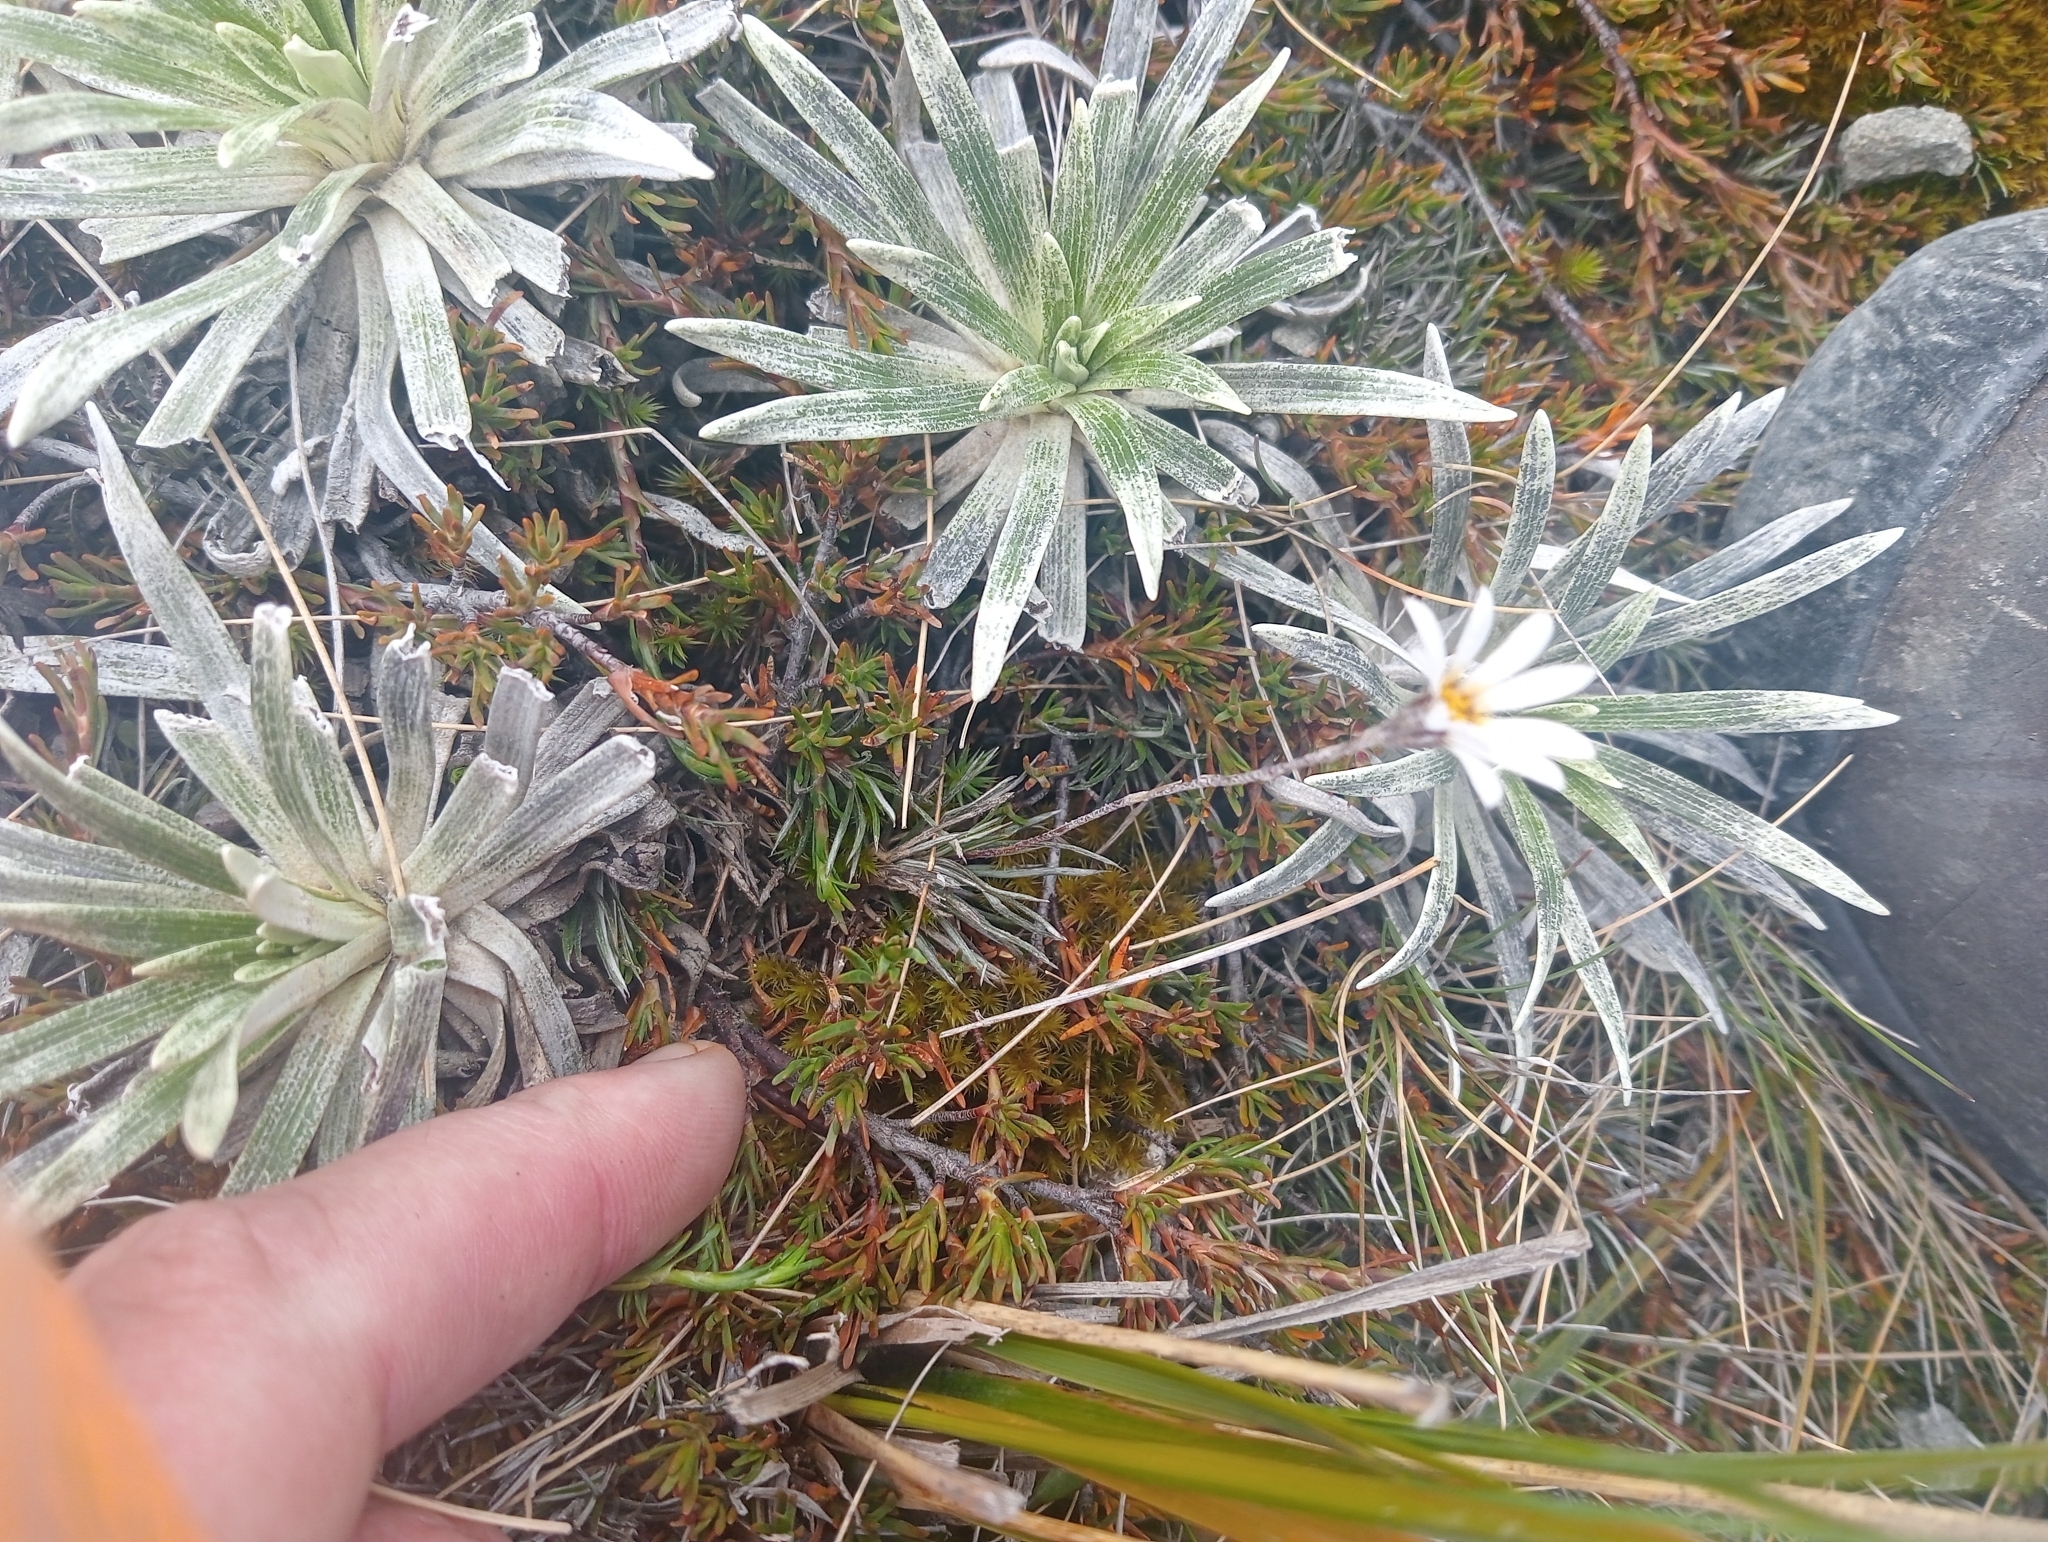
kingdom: Plantae
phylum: Tracheophyta
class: Magnoliopsida
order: Asterales
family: Asteraceae
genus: Celmisia
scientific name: Celmisia laricifolia
